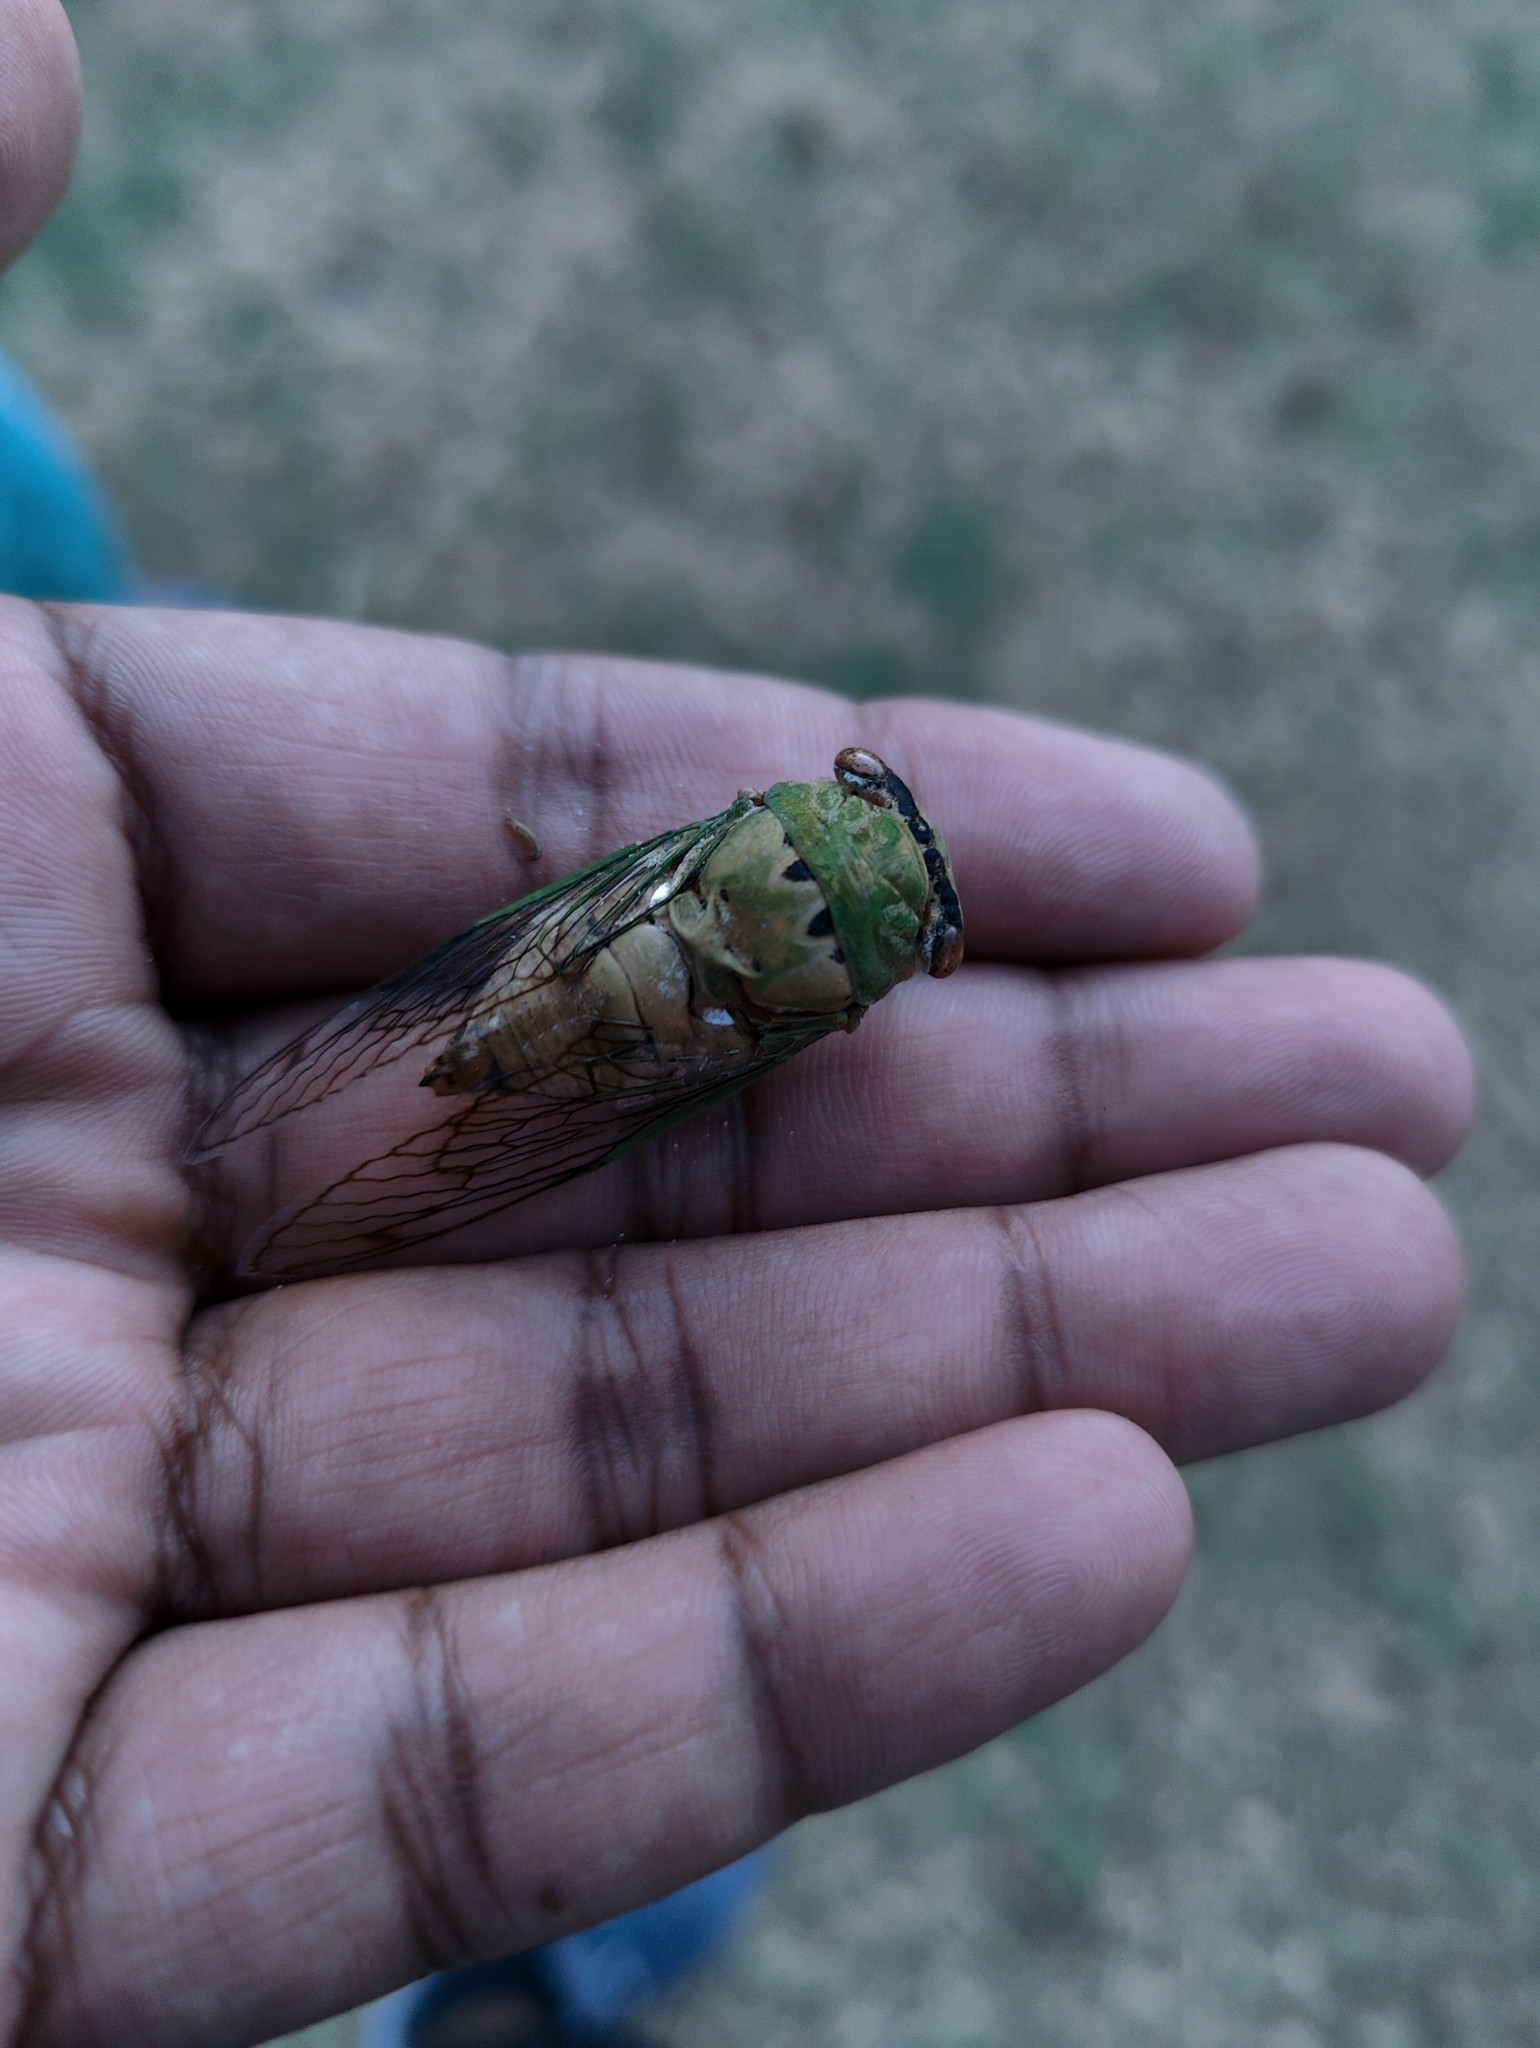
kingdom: Animalia
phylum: Arthropoda
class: Insecta
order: Hemiptera
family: Cicadidae
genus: Neotibicen
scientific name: Neotibicen superbus
